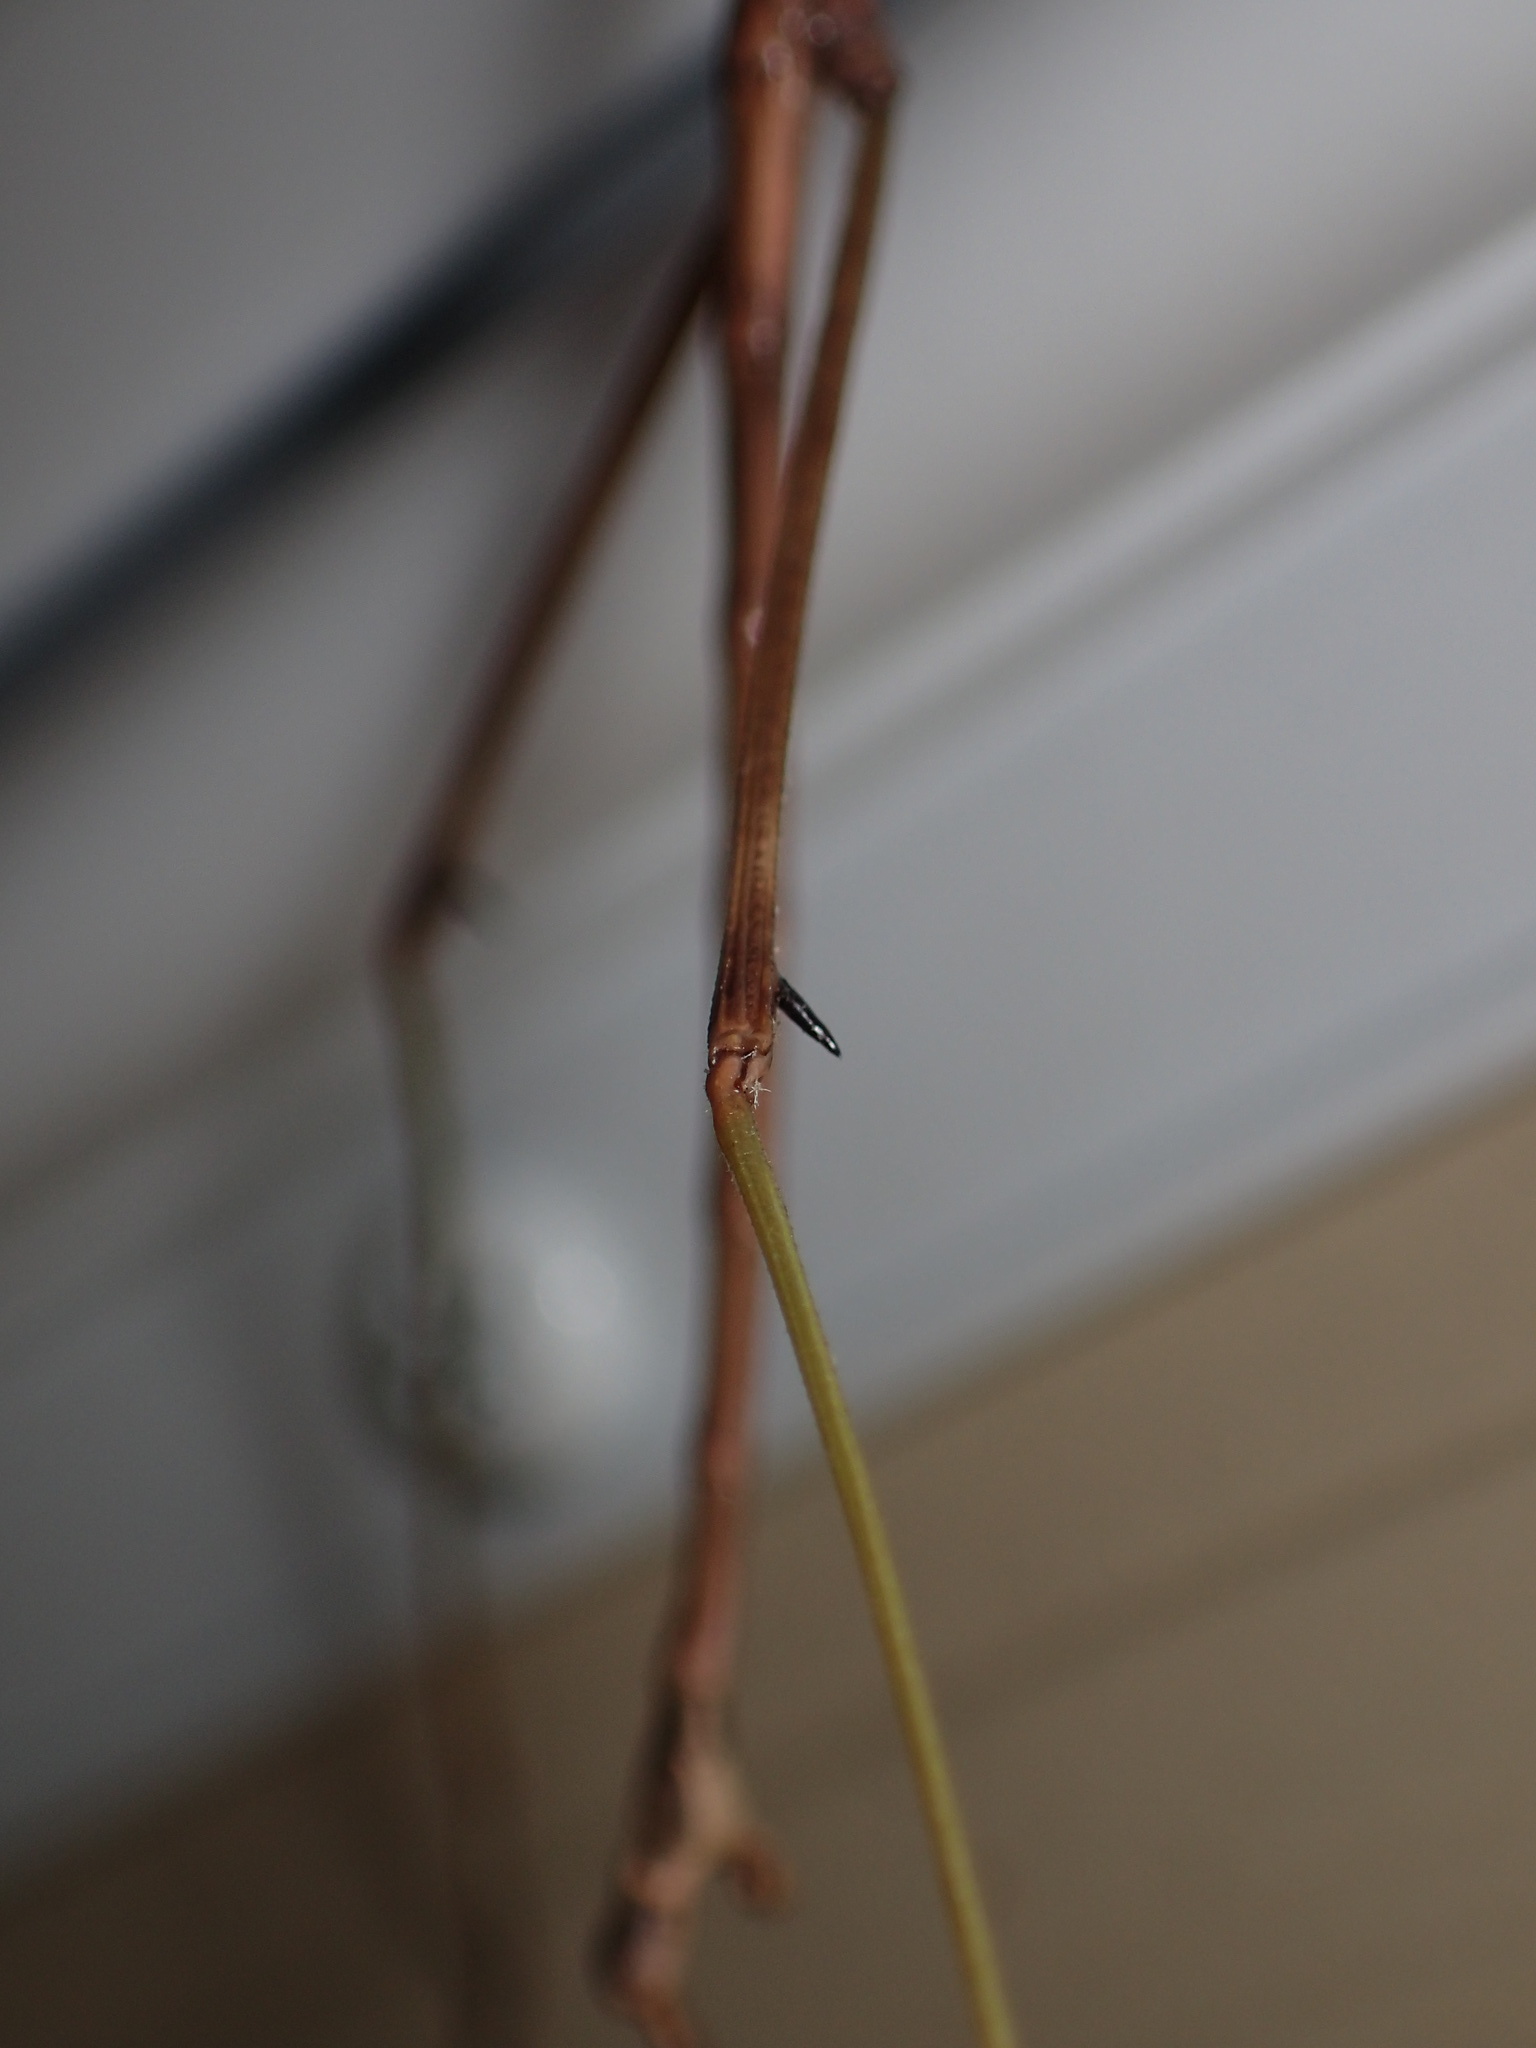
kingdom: Animalia
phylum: Arthropoda
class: Insecta
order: Phasmida
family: Diapheromeridae
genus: Diapheromera
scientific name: Diapheromera femorata
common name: Common american walkingstick
